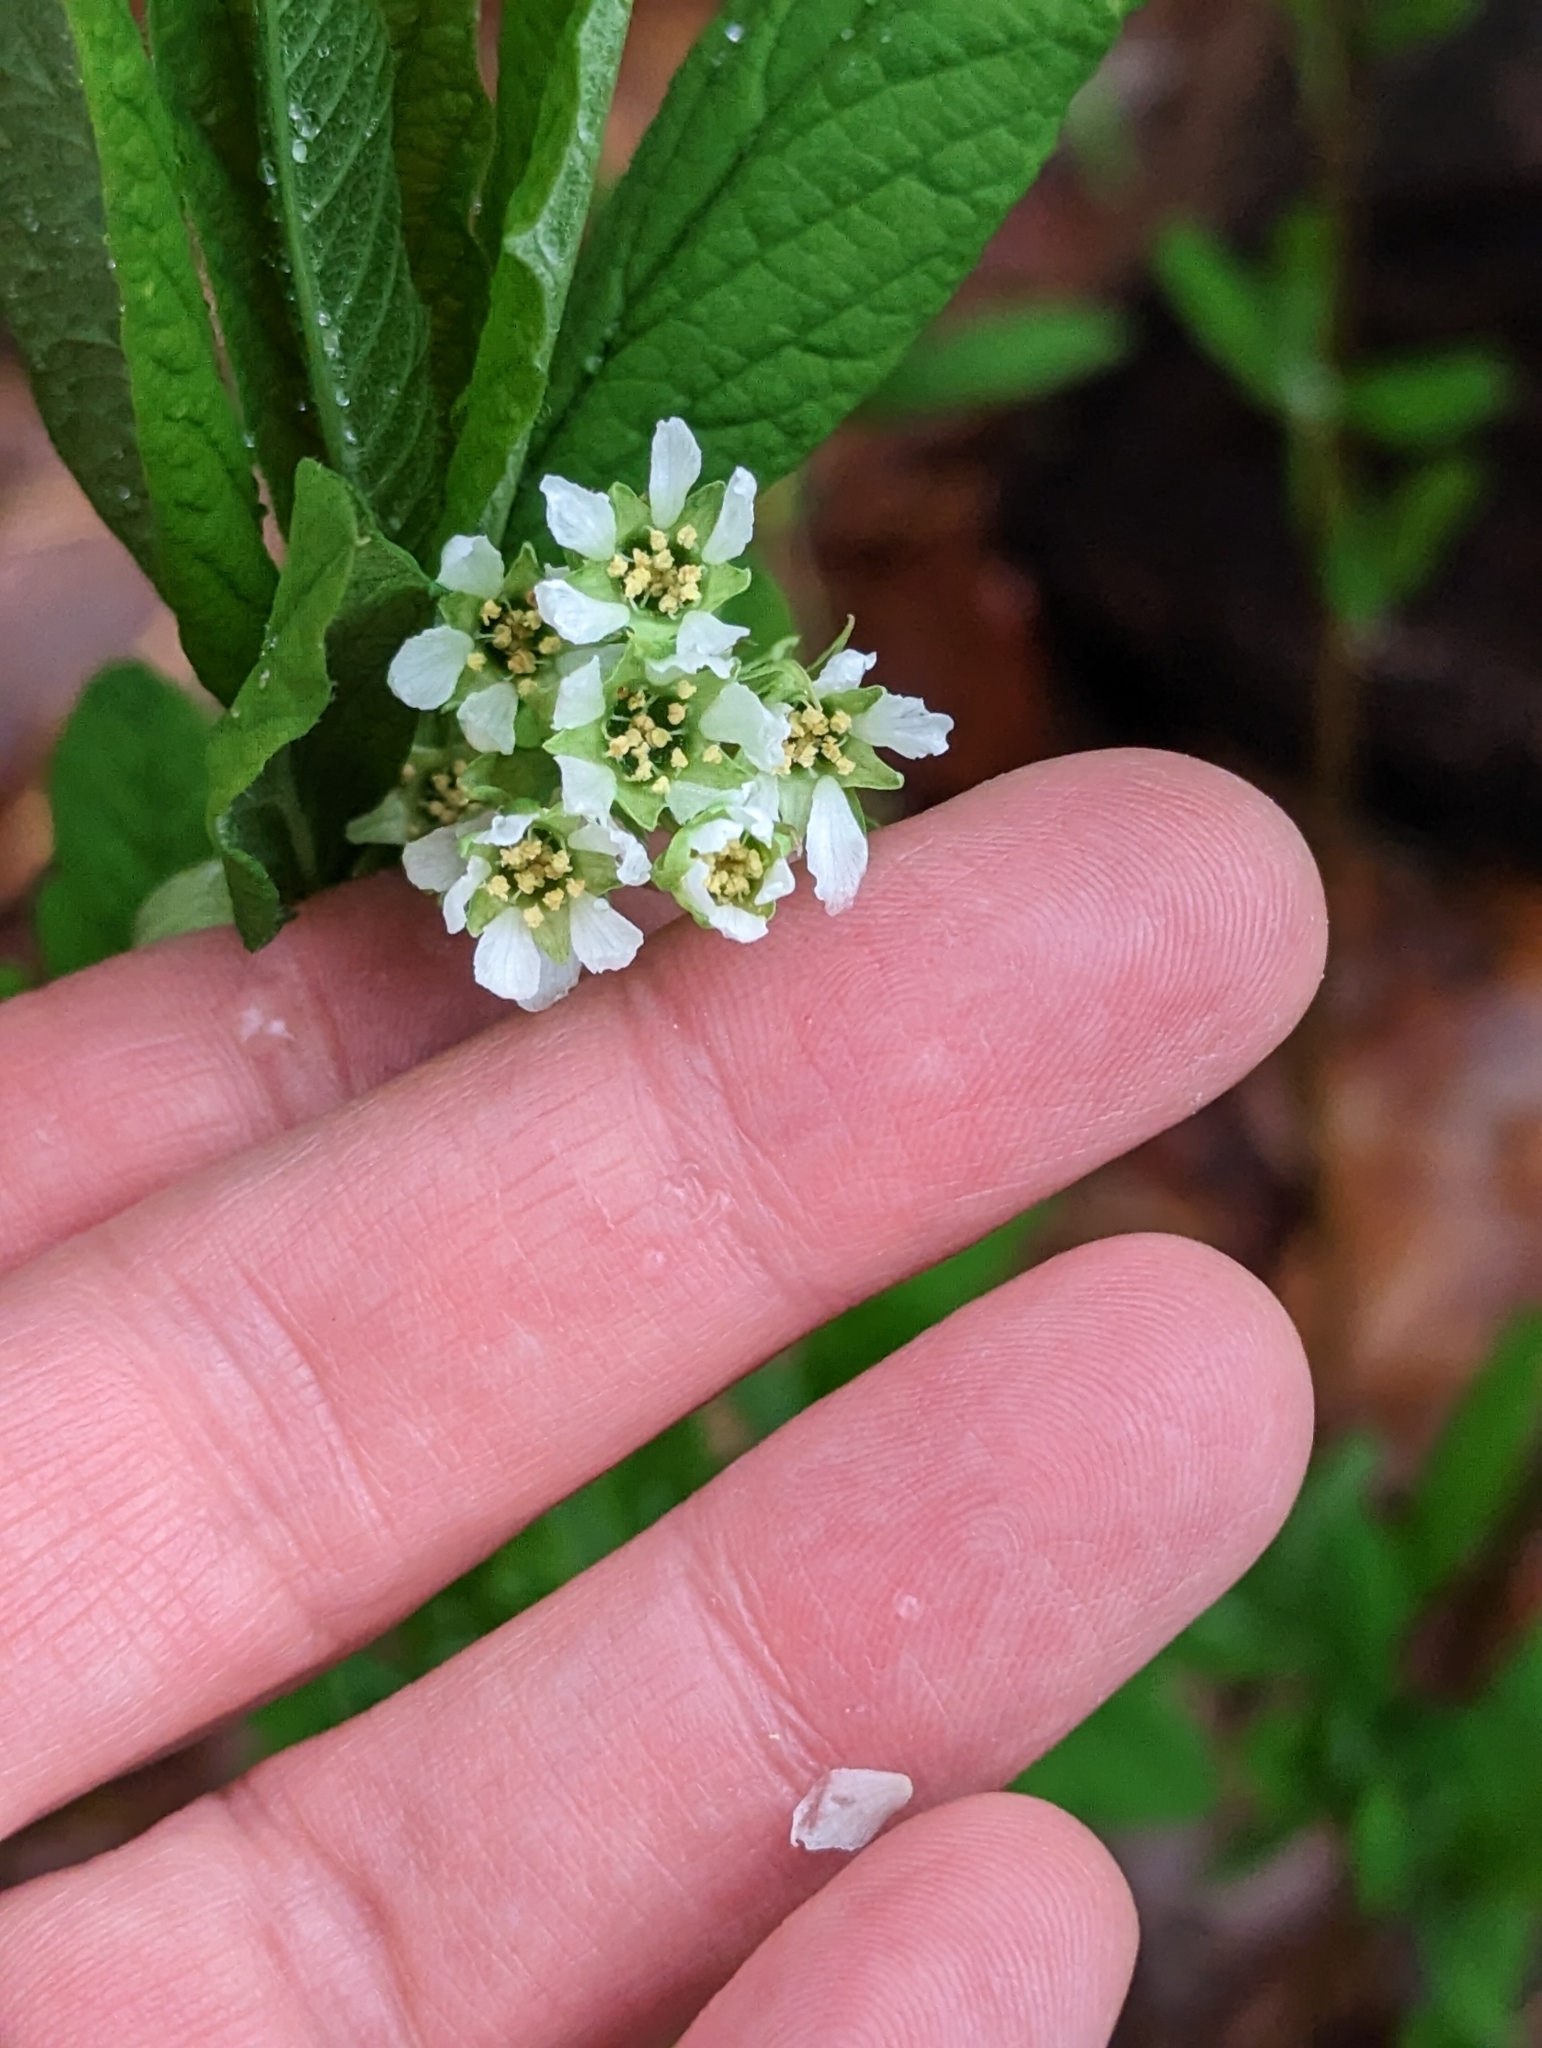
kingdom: Plantae
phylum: Tracheophyta
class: Magnoliopsida
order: Rosales
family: Rosaceae
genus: Oemleria
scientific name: Oemleria cerasiformis
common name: Osoberry
